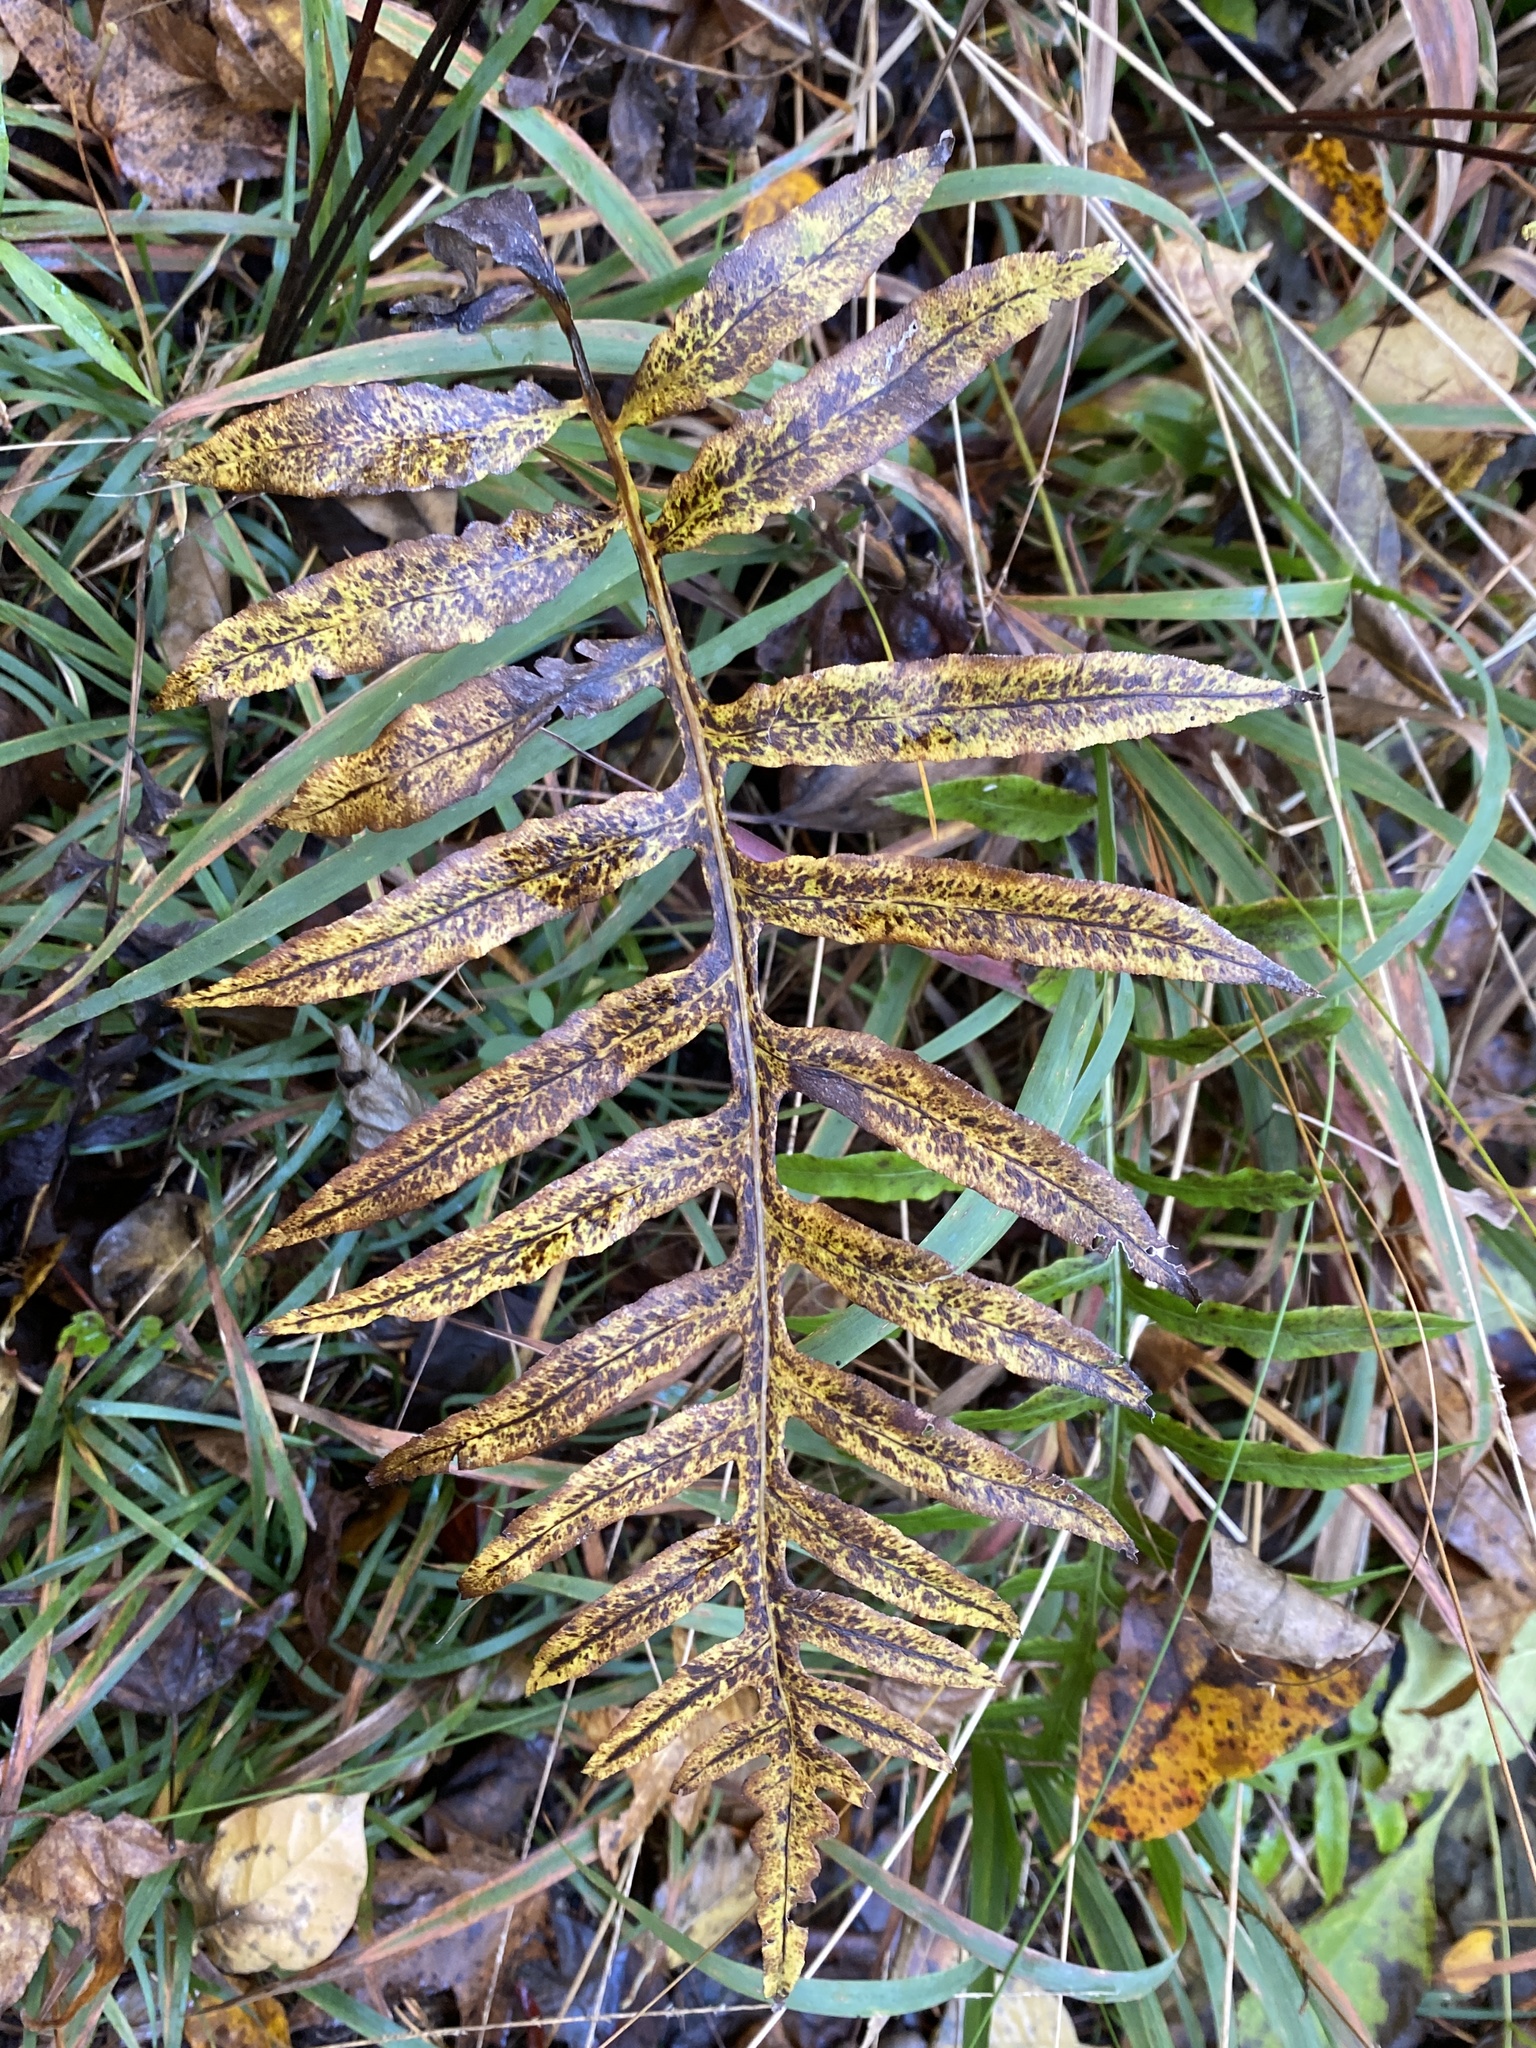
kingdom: Plantae
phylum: Tracheophyta
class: Polypodiopsida
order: Polypodiales
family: Blechnaceae
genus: Lorinseria
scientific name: Lorinseria areolata
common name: Dwarf chain fern
